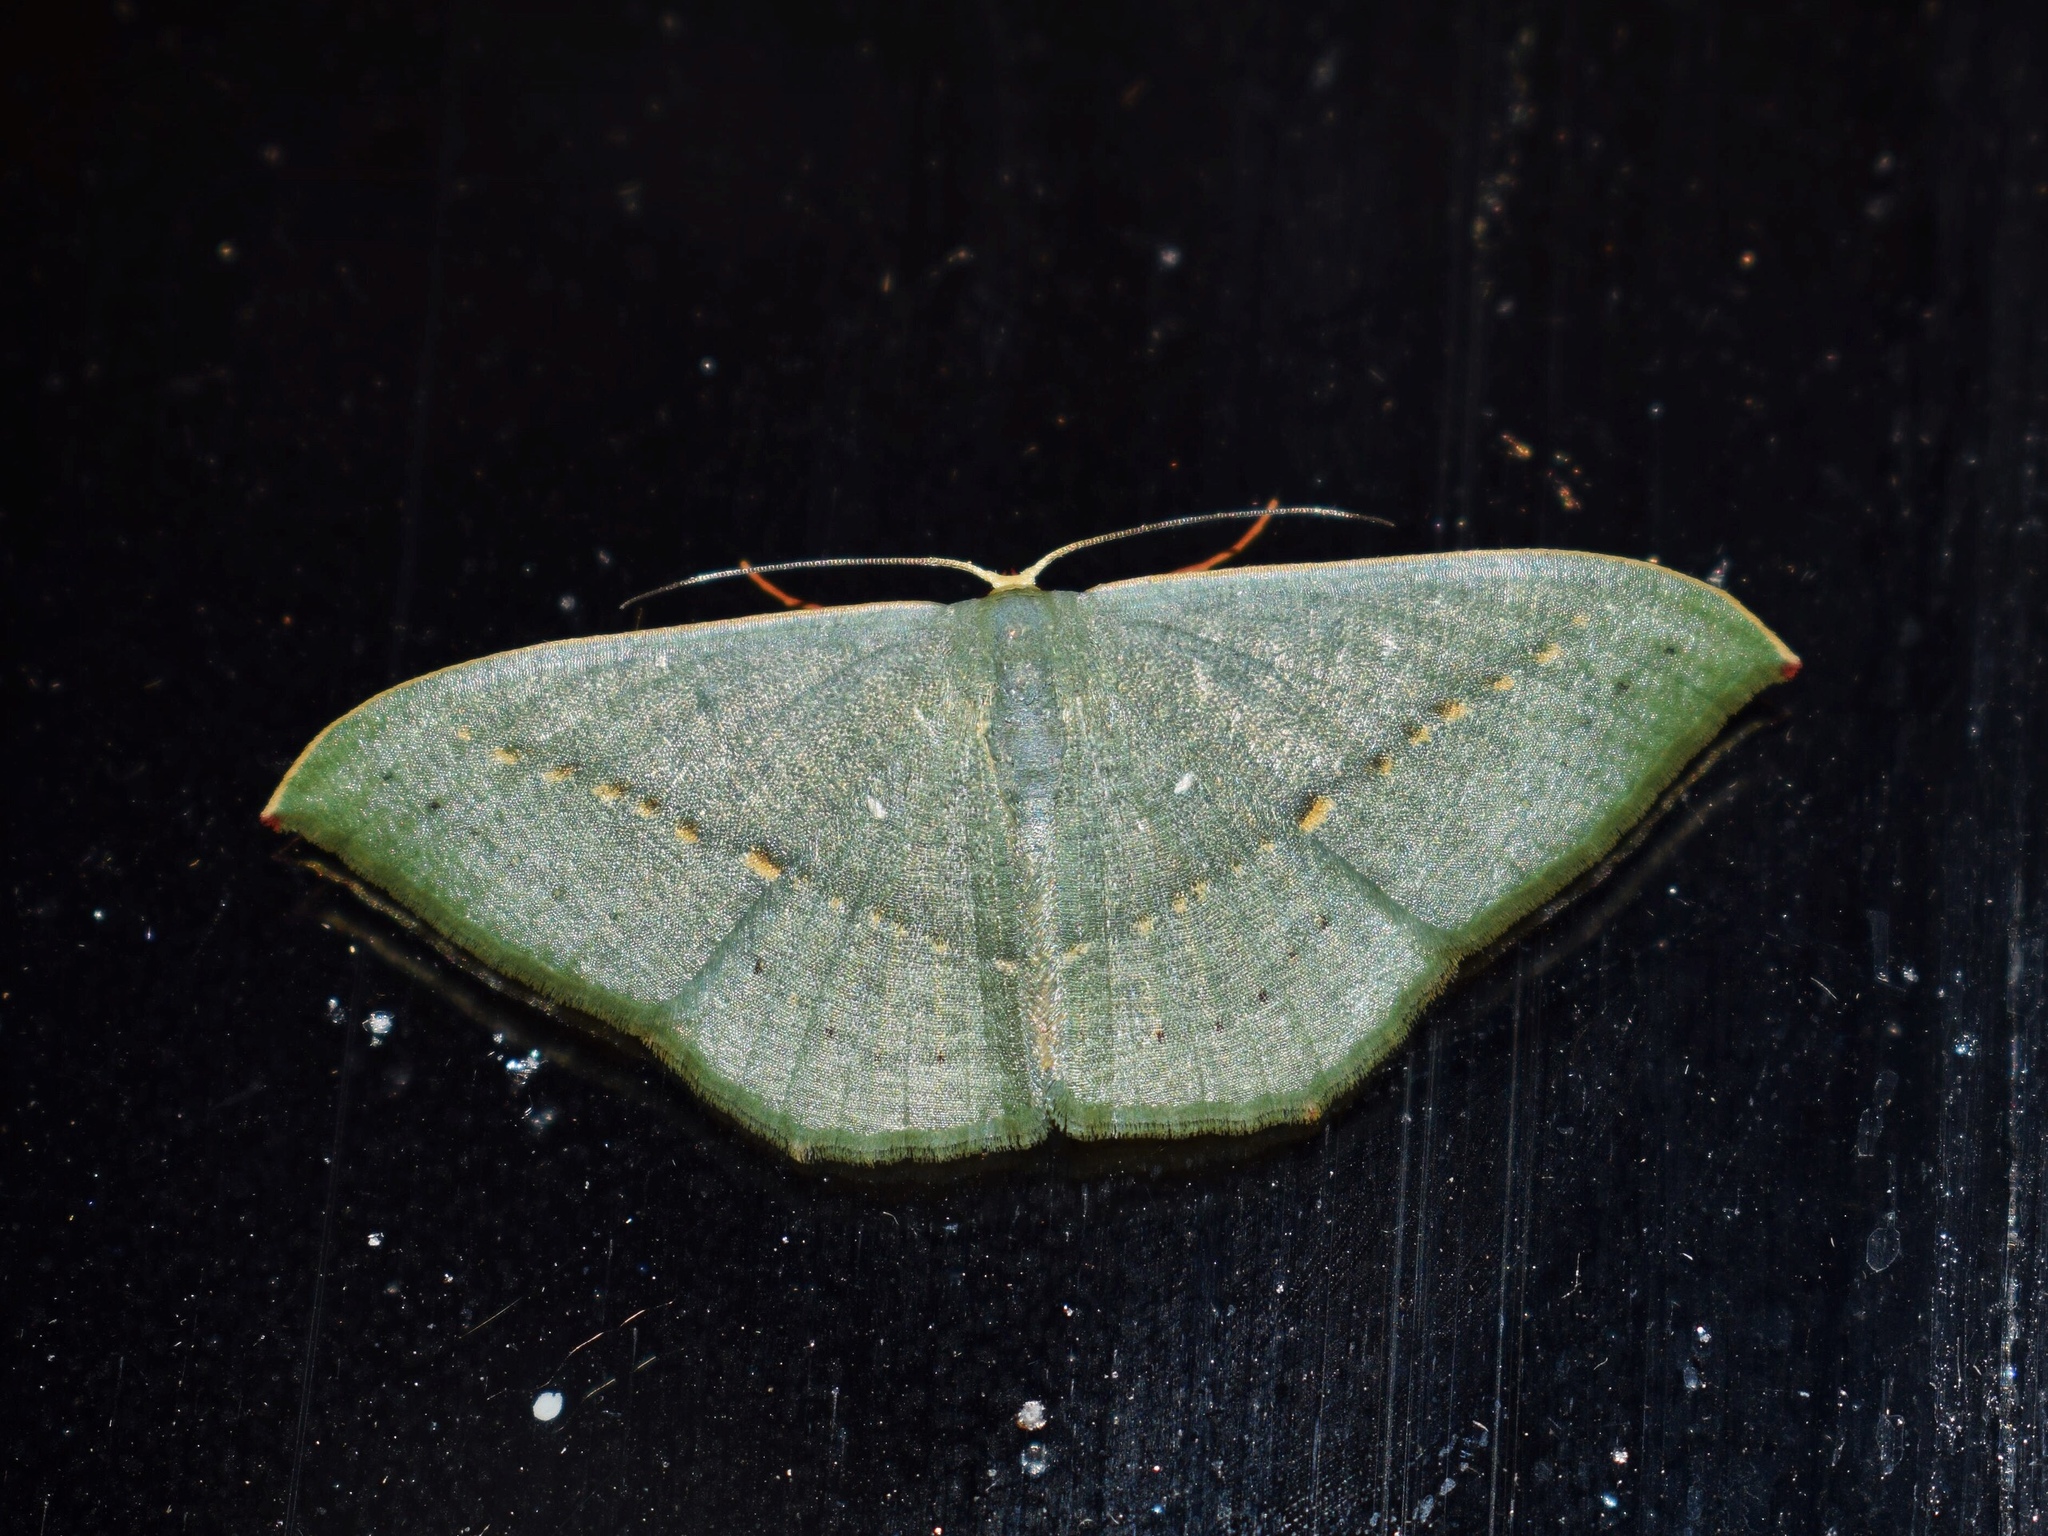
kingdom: Animalia
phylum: Arthropoda
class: Insecta
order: Lepidoptera
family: Geometridae
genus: Traminda
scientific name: Traminda obversata
